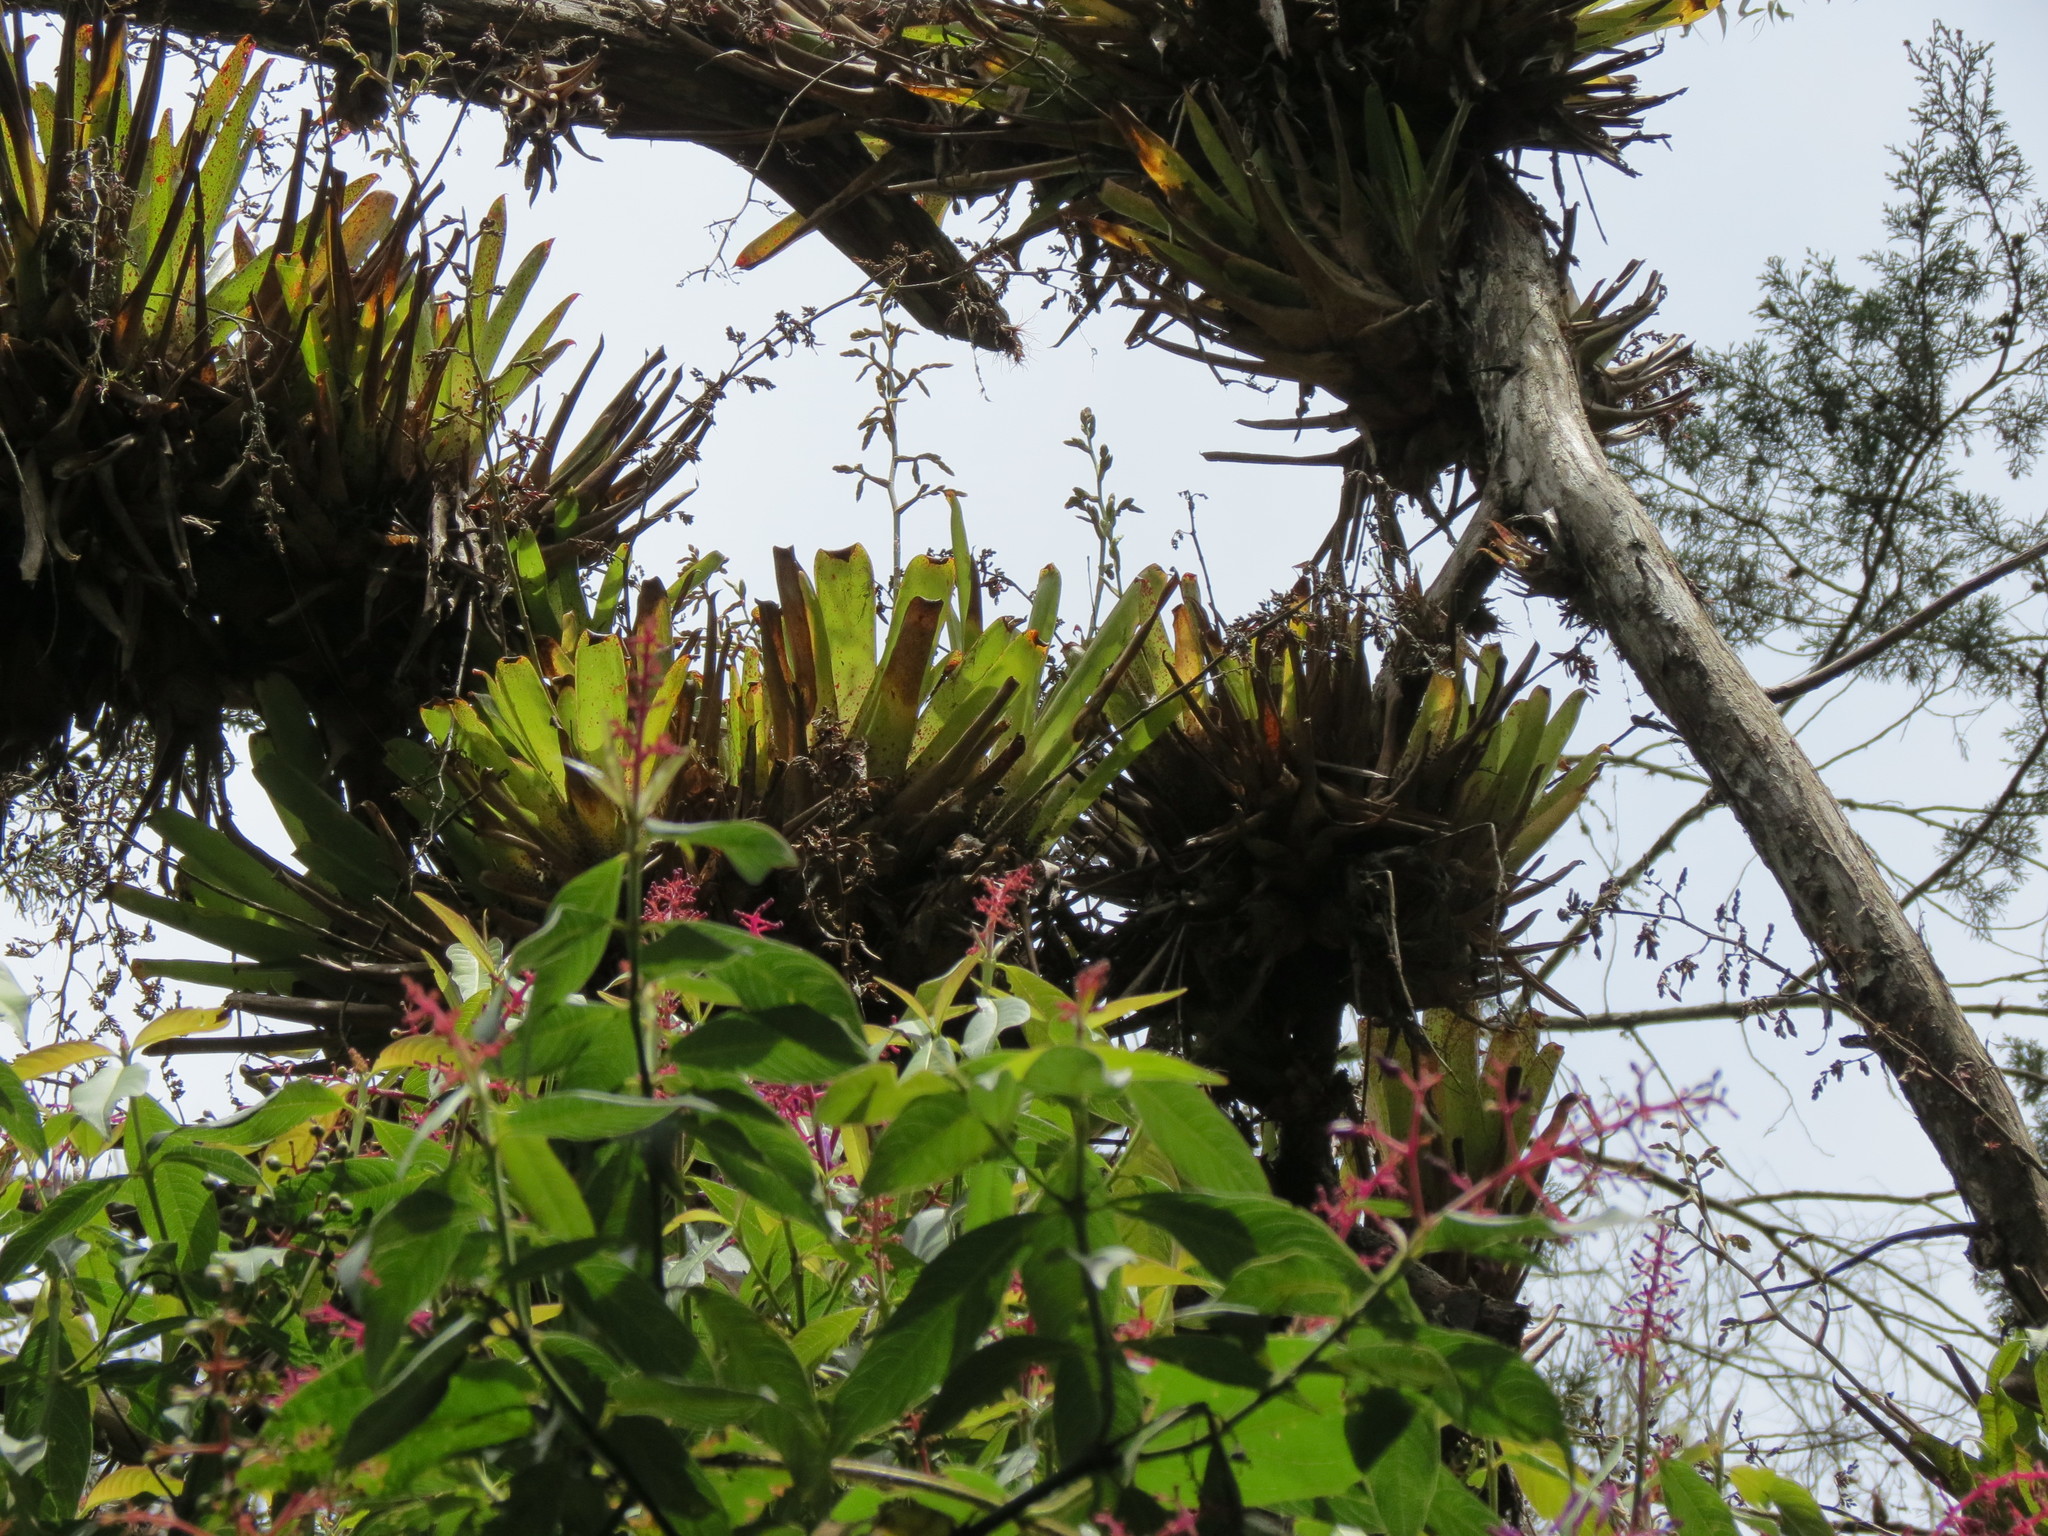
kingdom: Plantae
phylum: Tracheophyta
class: Liliopsida
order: Poales
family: Bromeliaceae
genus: Racinaea
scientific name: Racinaea penlandii
